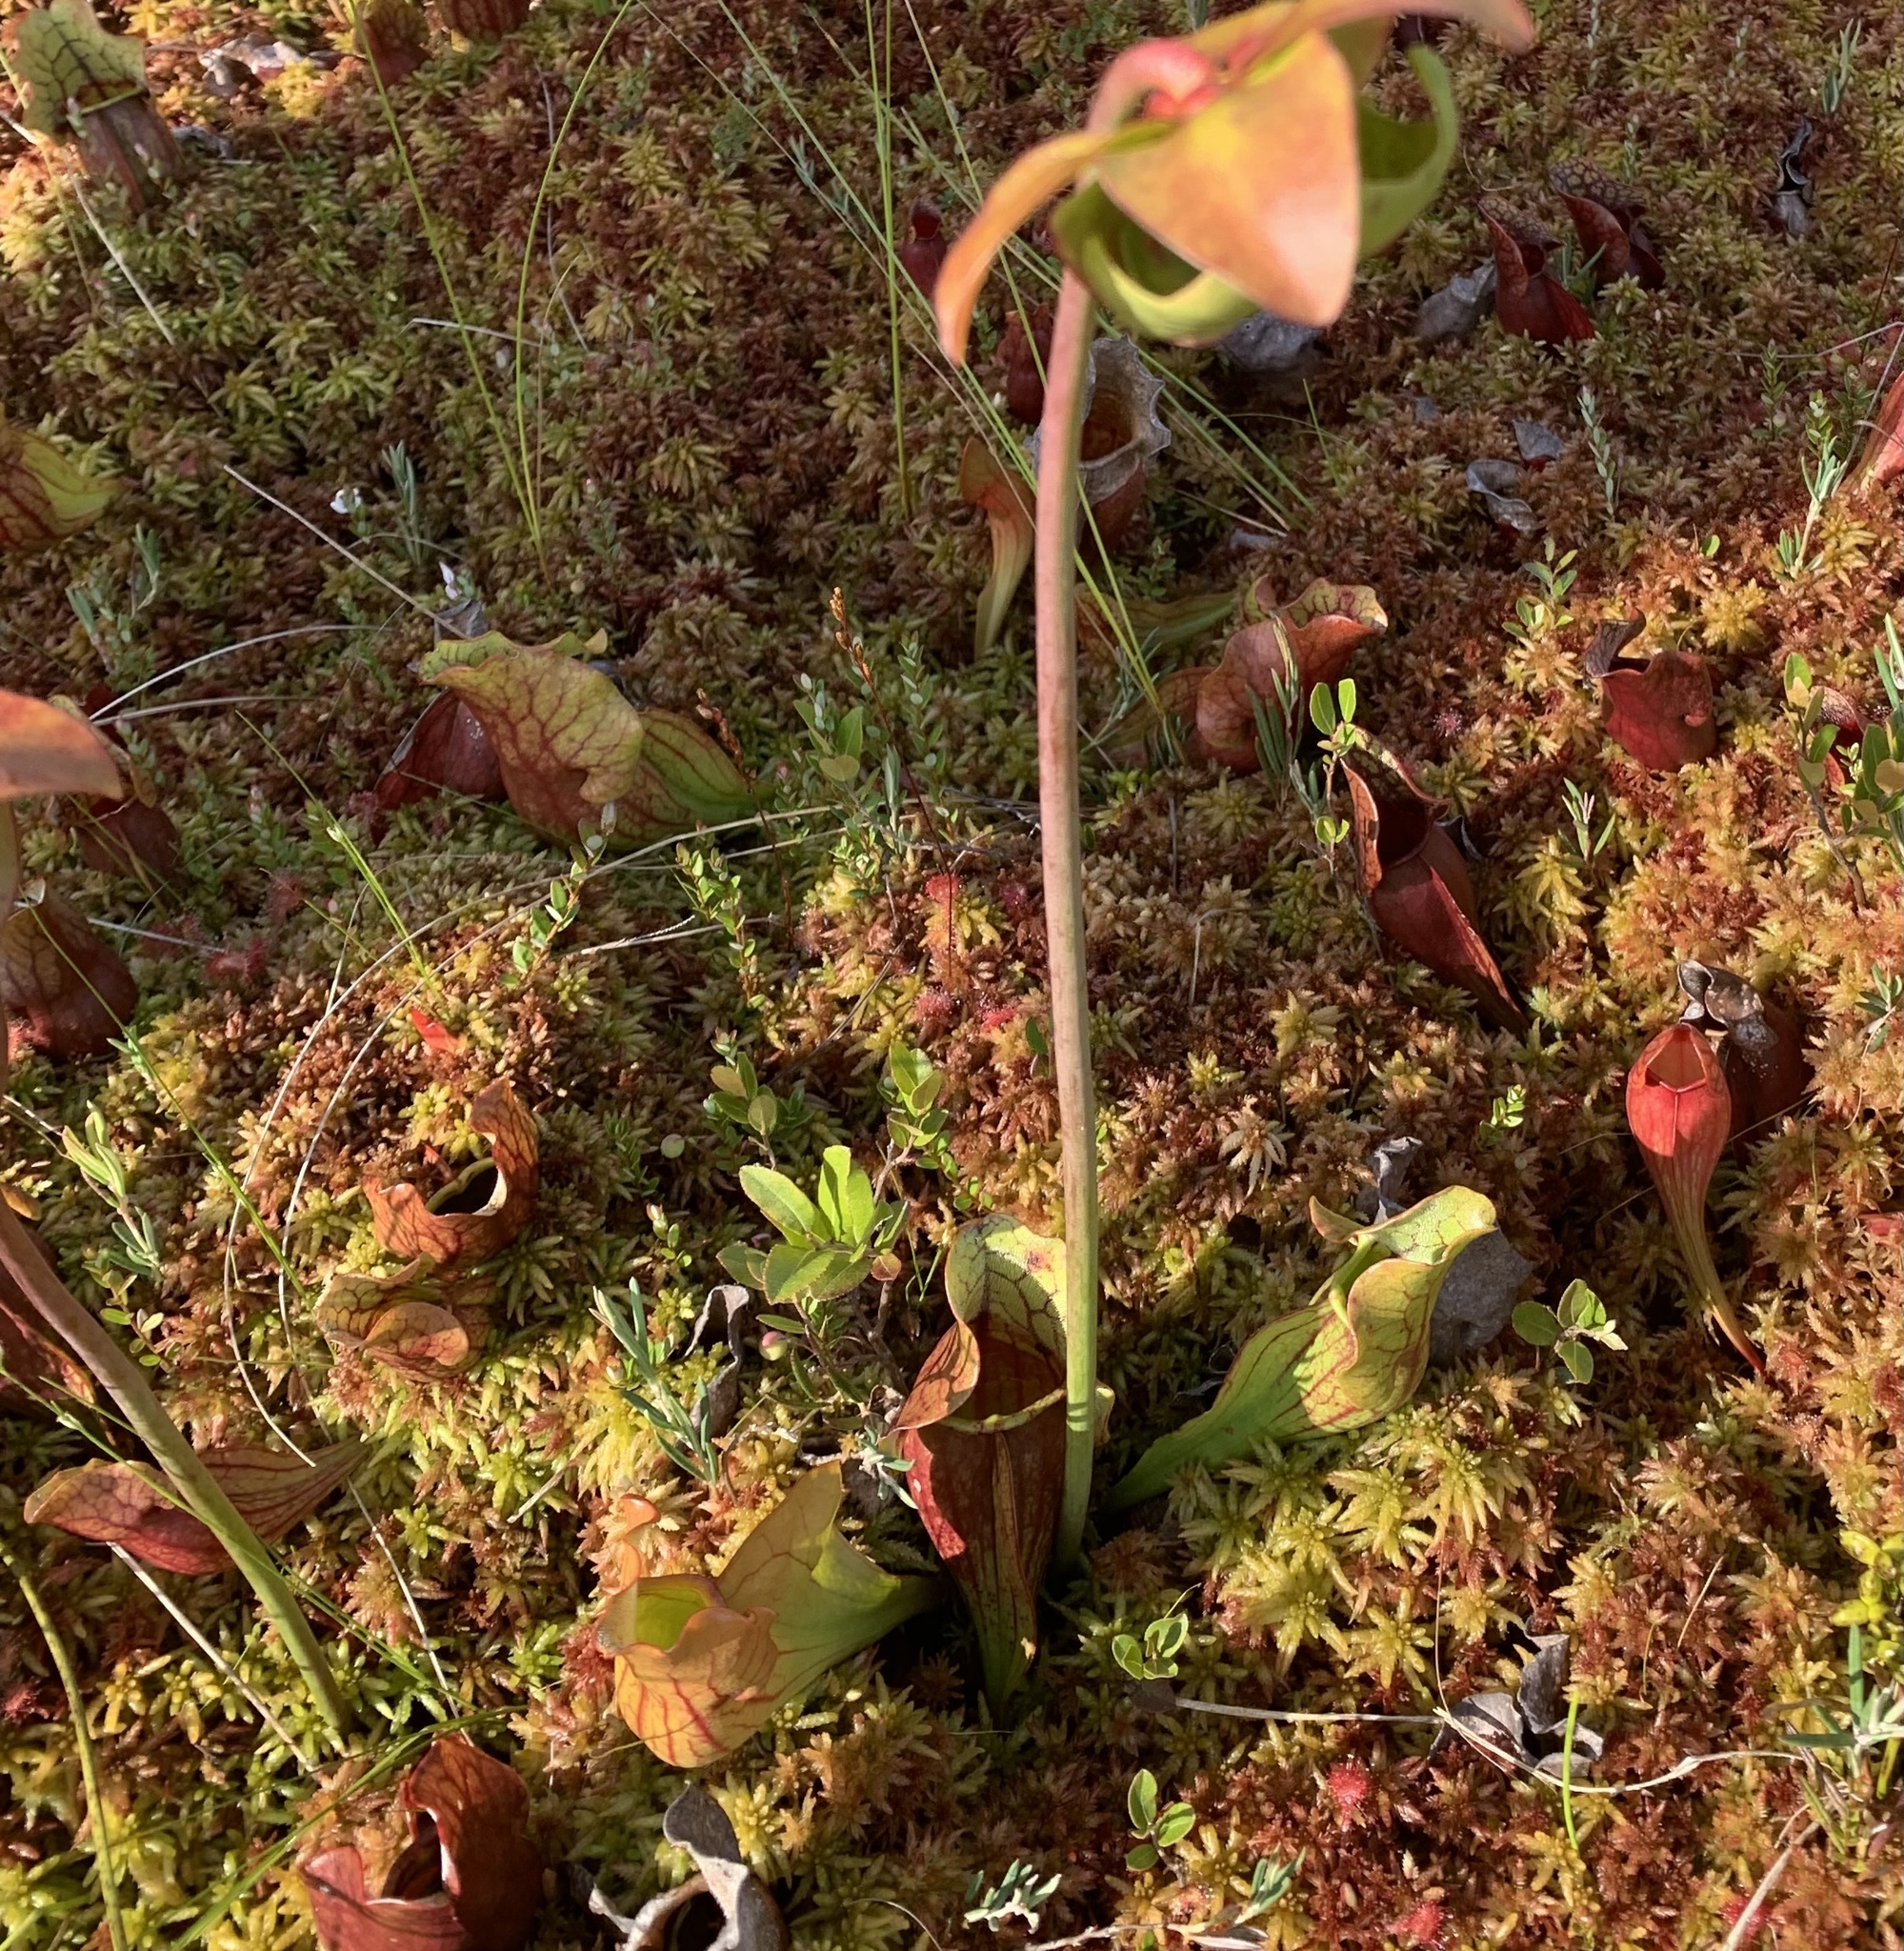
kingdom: Plantae
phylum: Tracheophyta
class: Magnoliopsida
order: Ericales
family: Sarraceniaceae
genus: Sarracenia
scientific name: Sarracenia purpurea
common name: Pitcherplant
